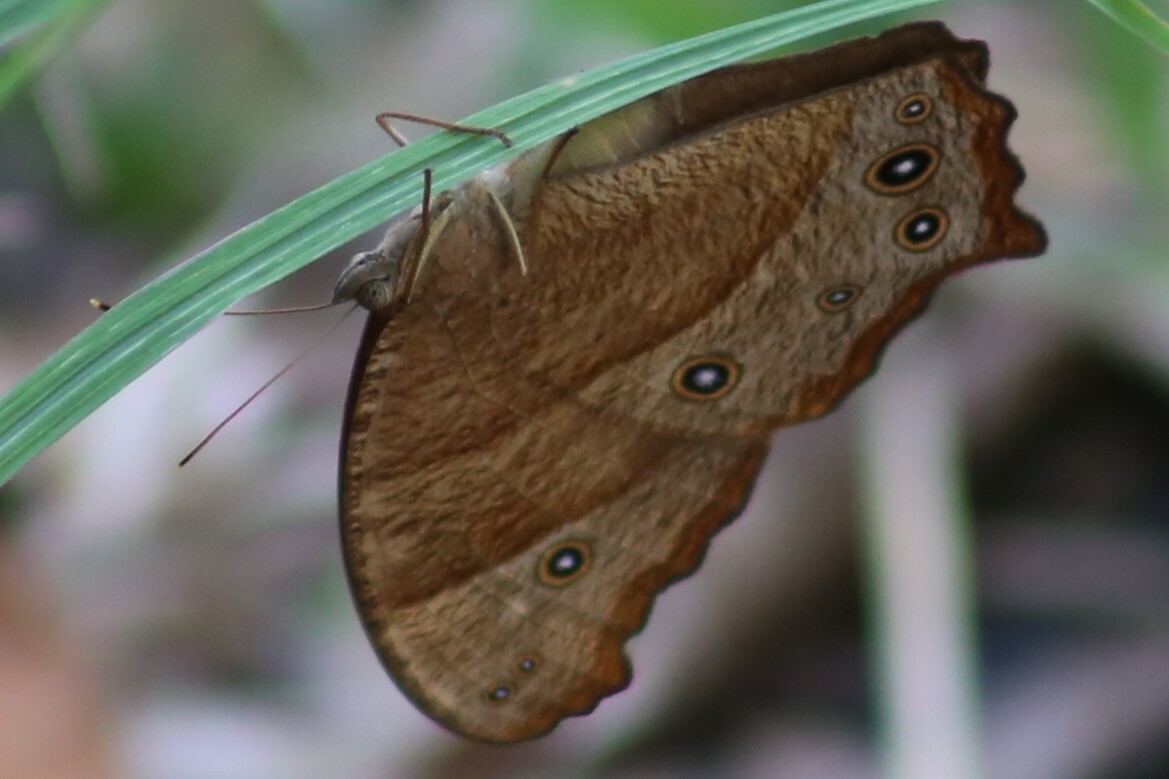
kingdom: Animalia
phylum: Arthropoda
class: Insecta
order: Lepidoptera
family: Nymphalidae
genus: Melanitis
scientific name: Melanitis leda
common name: Twilight brown
